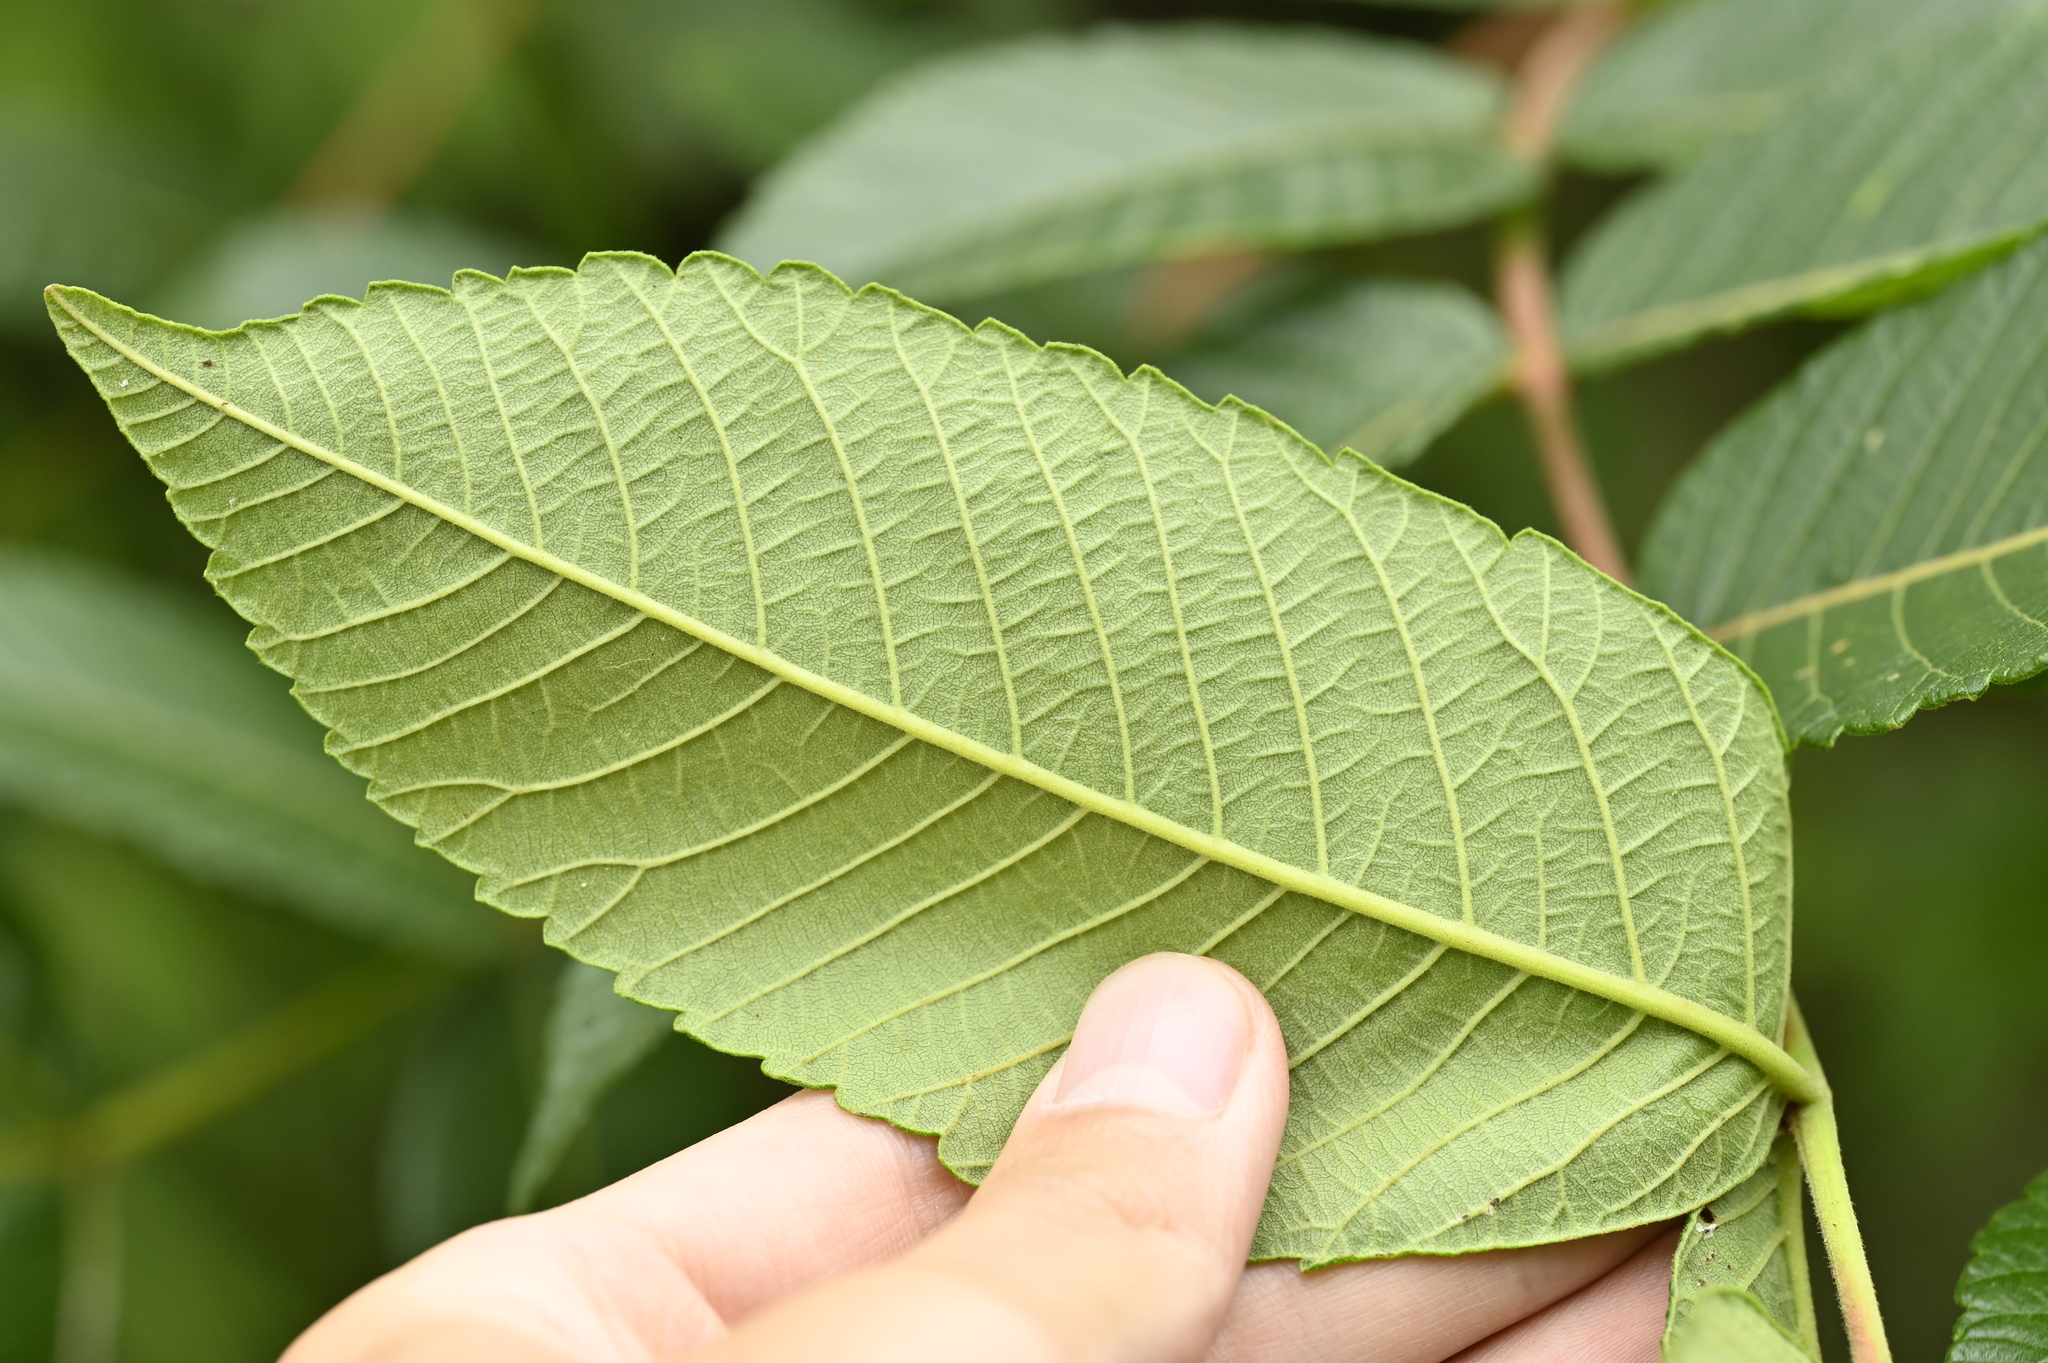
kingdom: Plantae
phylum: Tracheophyta
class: Magnoliopsida
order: Sapindales
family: Anacardiaceae
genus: Rhus
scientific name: Rhus chinensis
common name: Chinese gall
